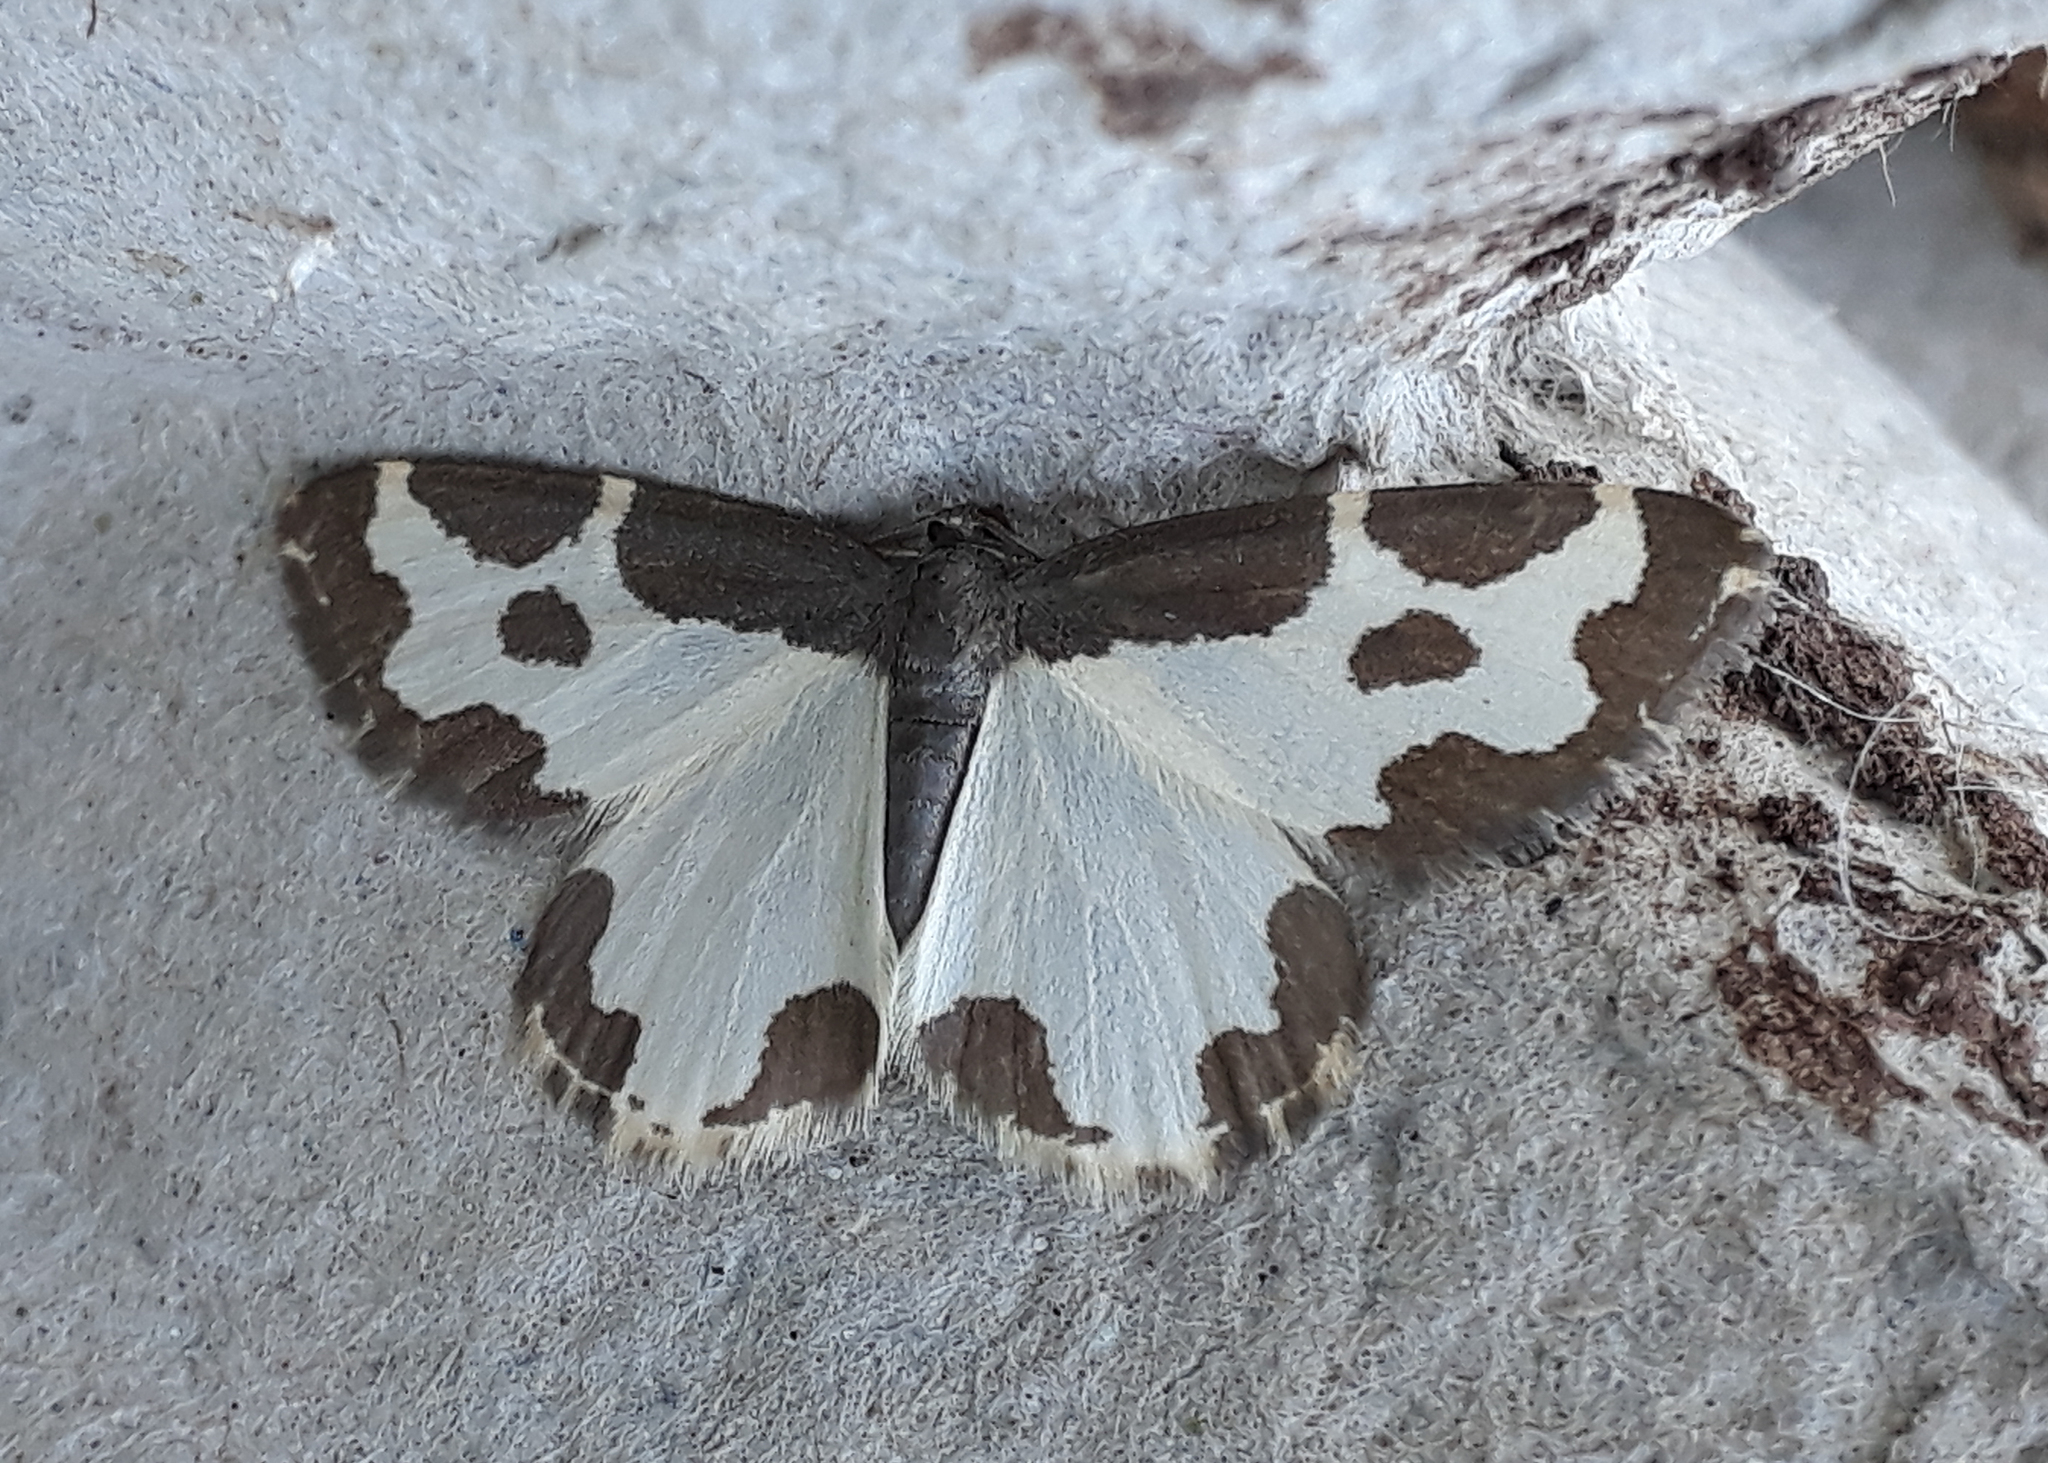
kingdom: Animalia
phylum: Arthropoda
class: Insecta
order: Lepidoptera
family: Geometridae
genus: Lomaspilis
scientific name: Lomaspilis marginata
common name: Clouded border
